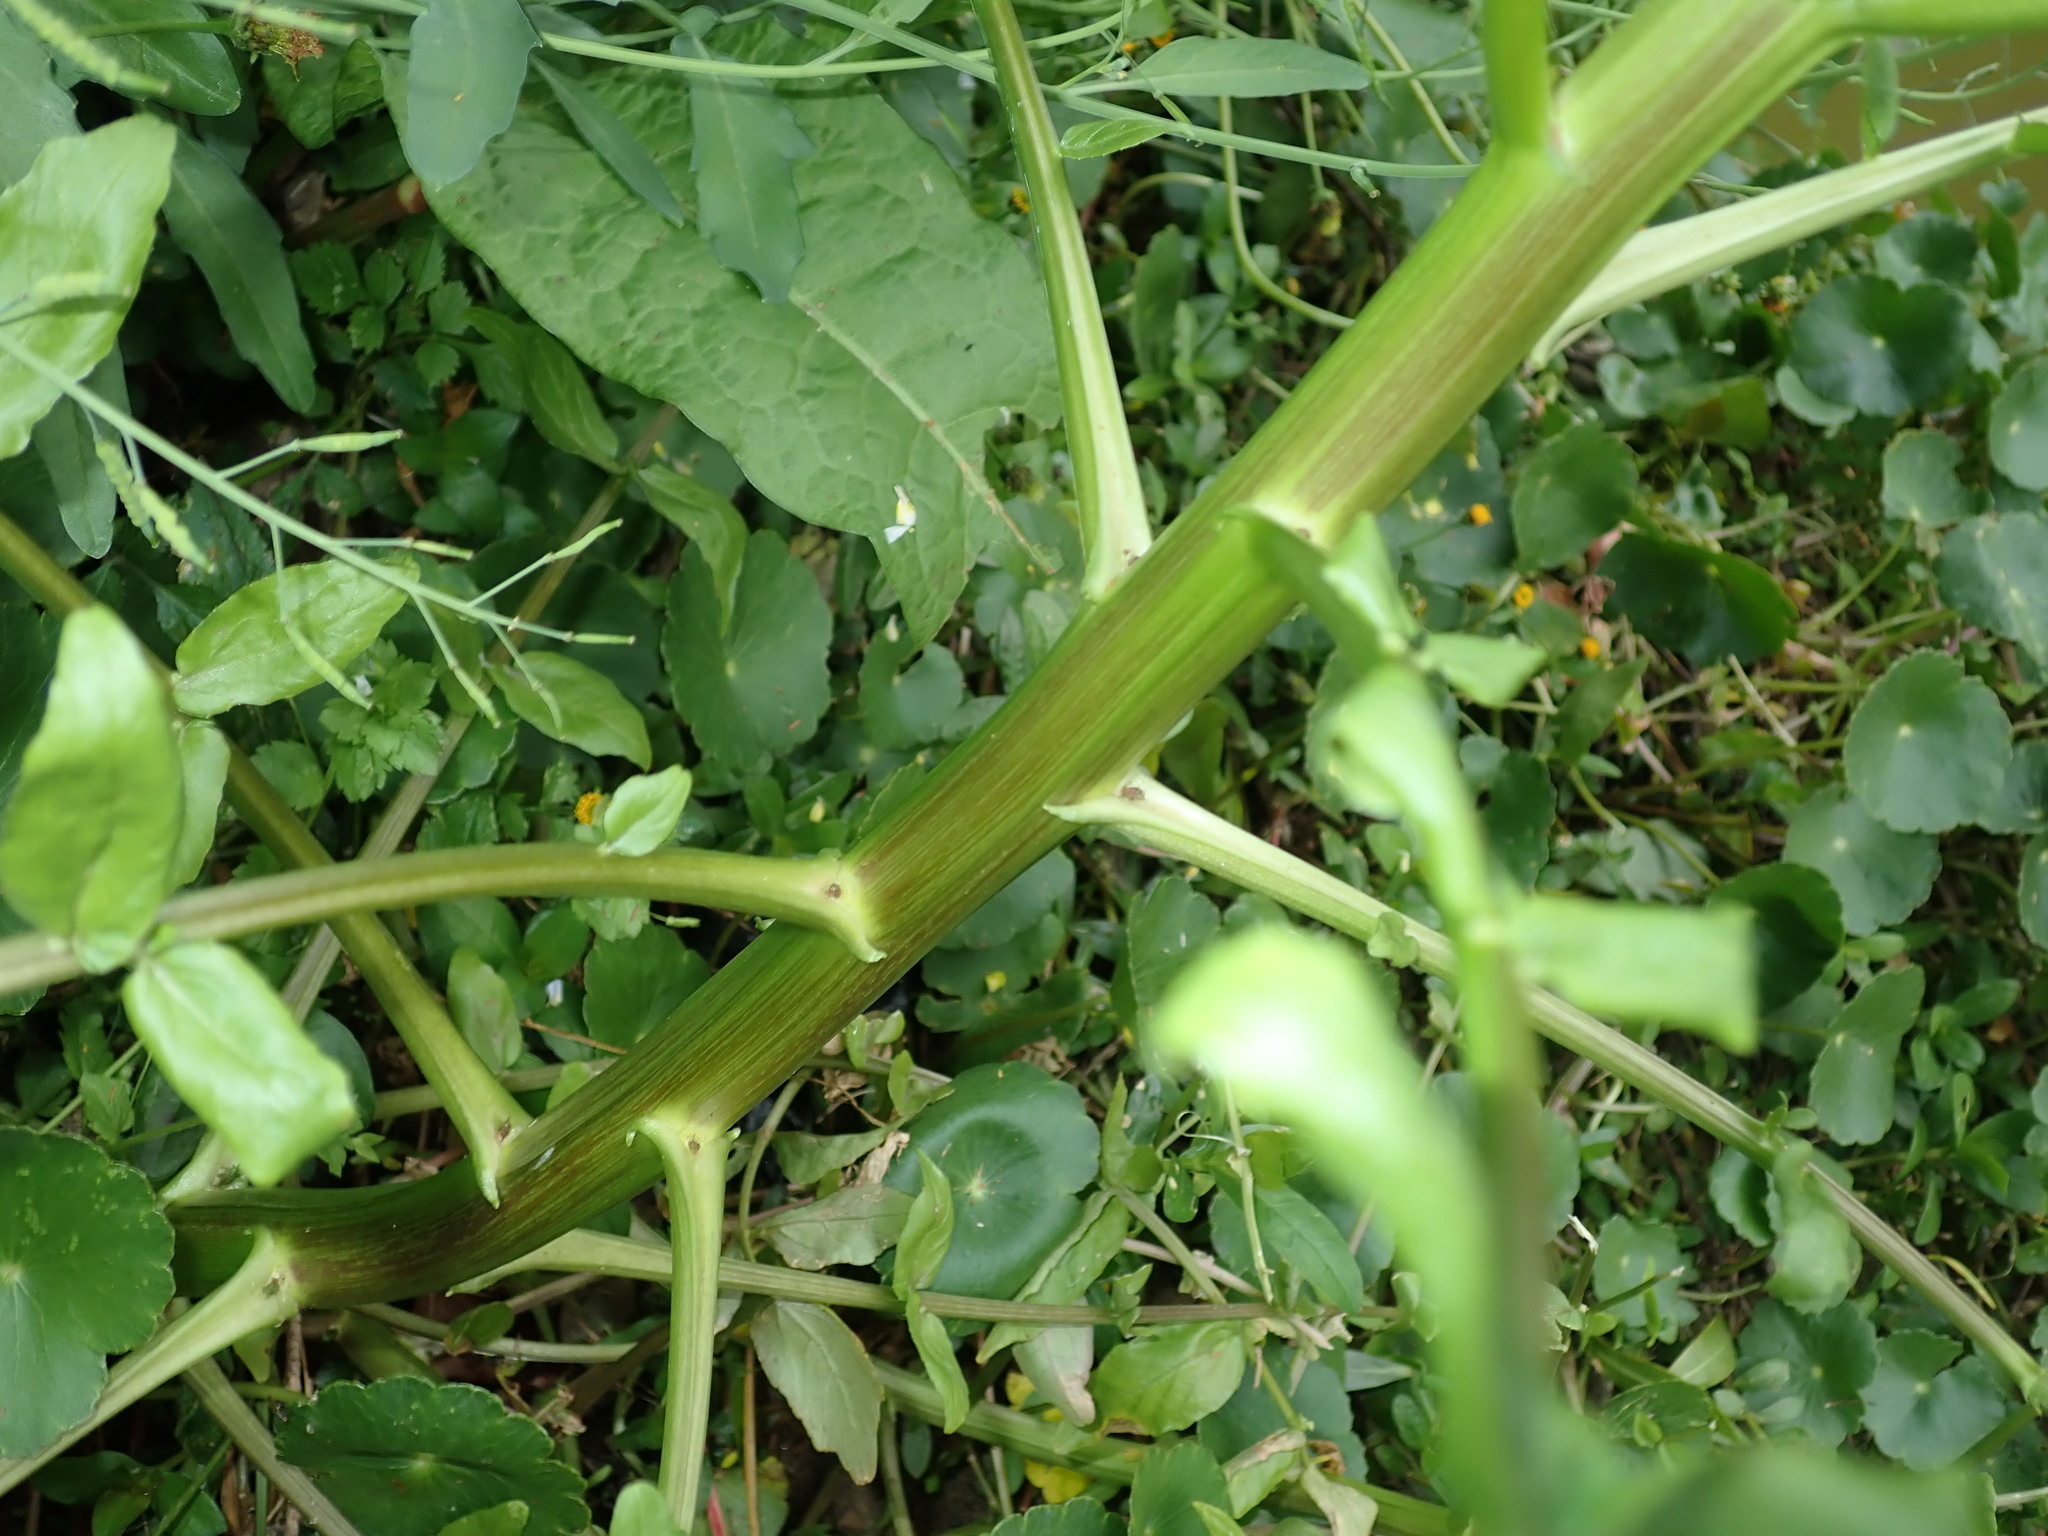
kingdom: Plantae
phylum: Tracheophyta
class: Magnoliopsida
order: Brassicales
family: Brassicaceae
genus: Nasturtium
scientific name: Nasturtium officinale
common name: Watercress
